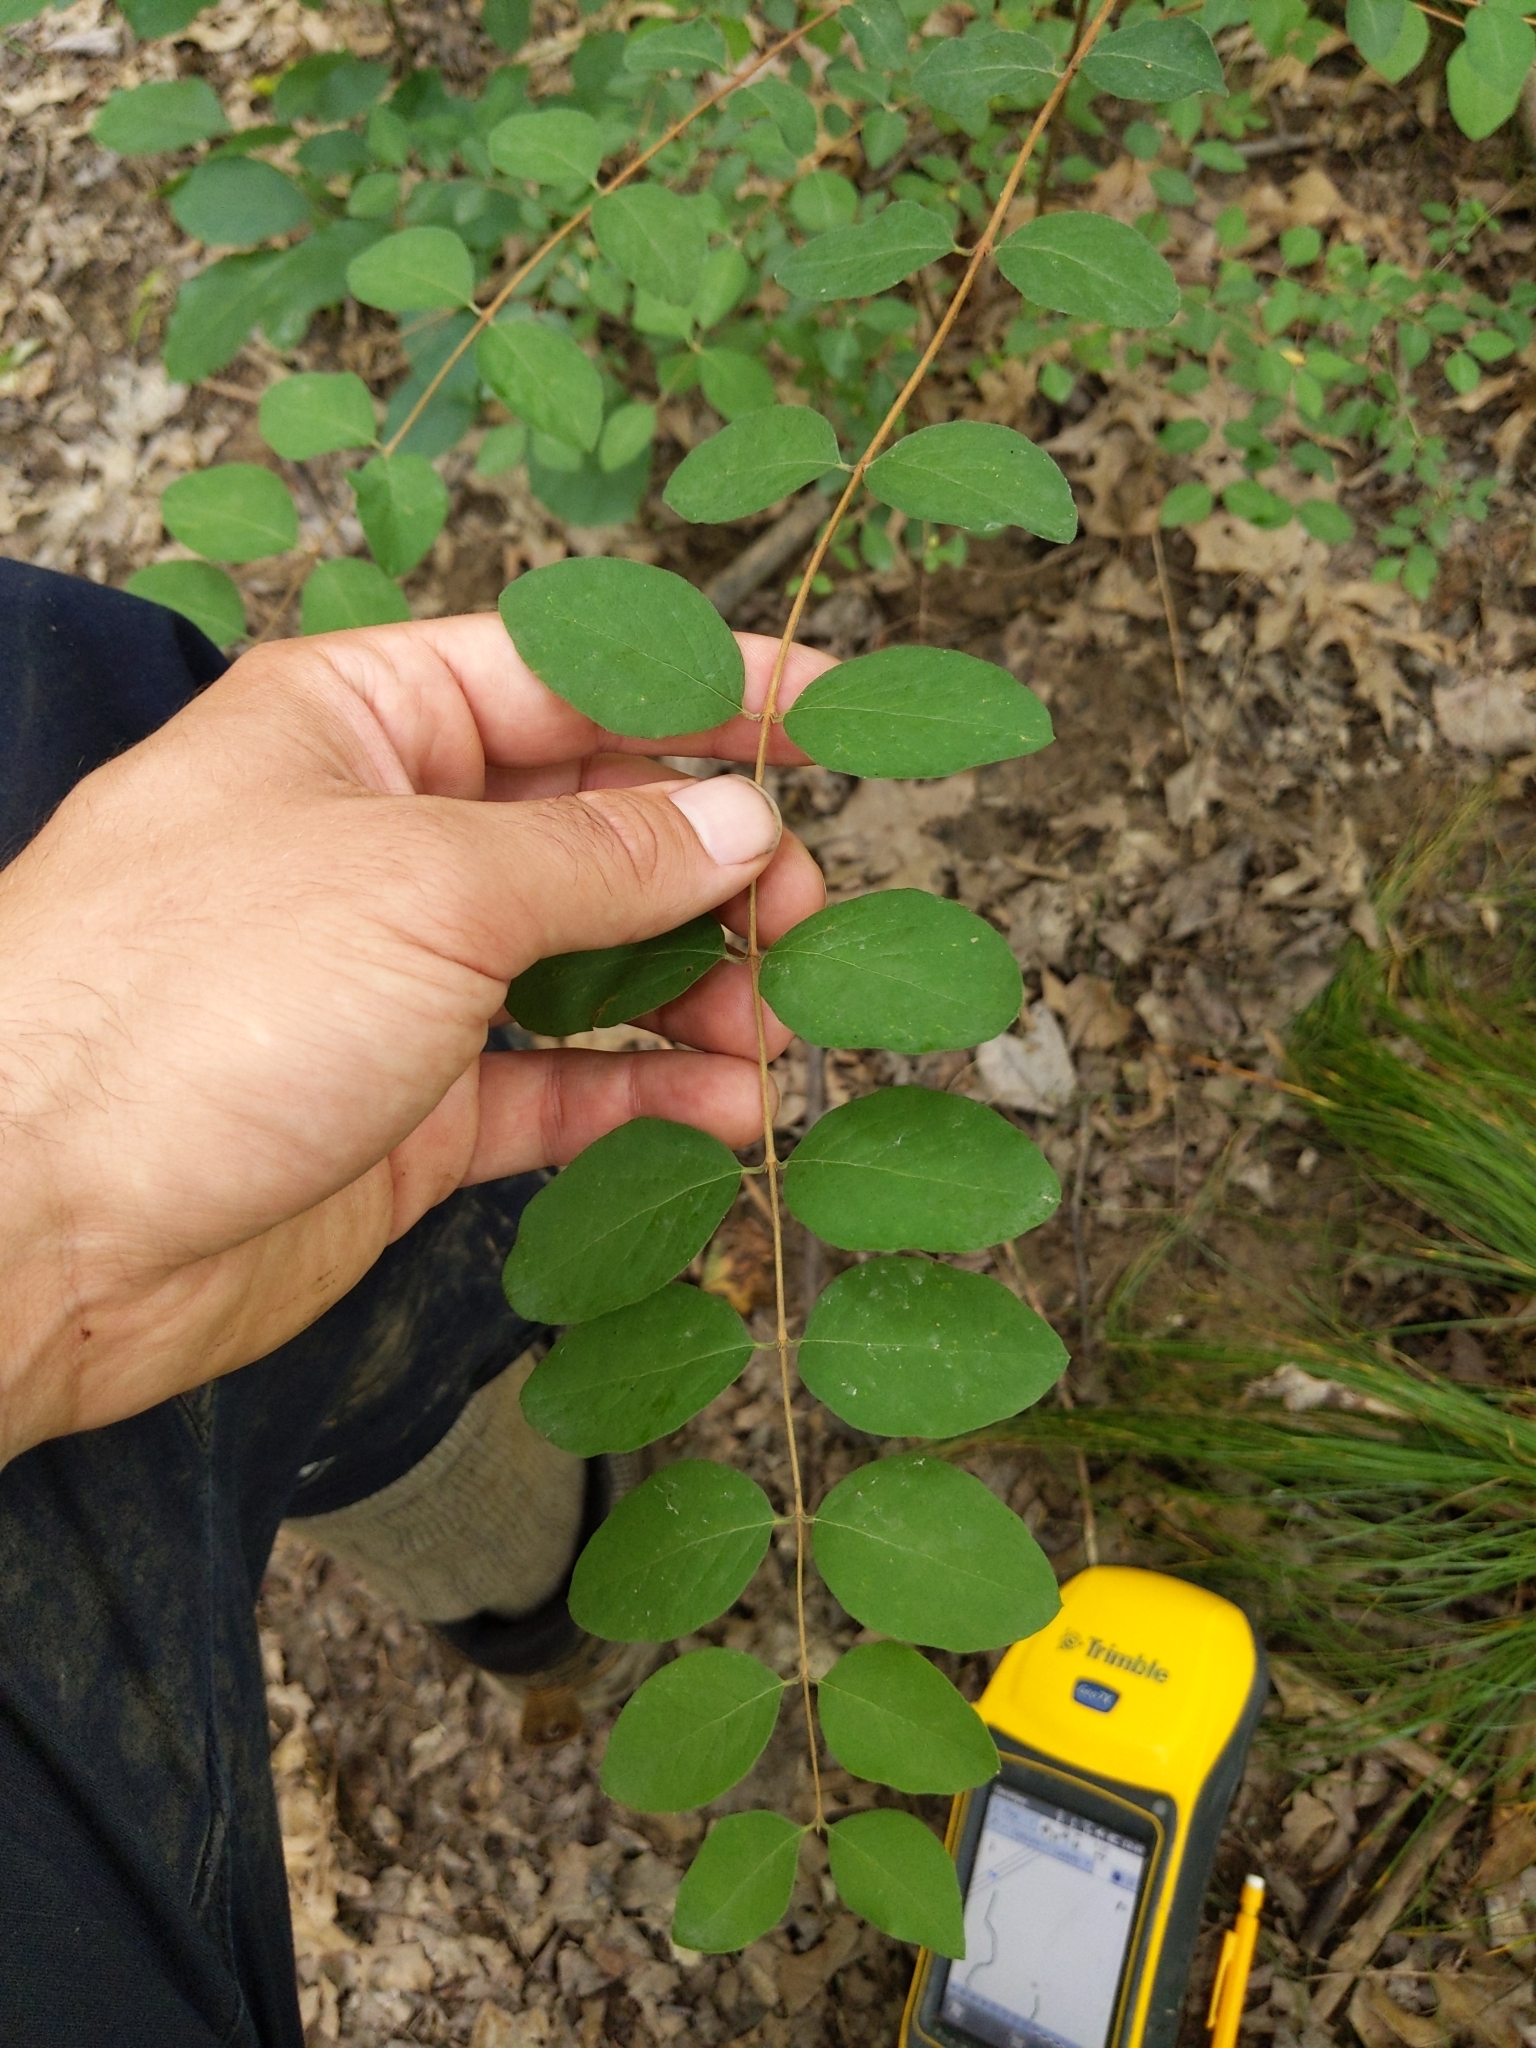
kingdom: Plantae
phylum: Tracheophyta
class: Magnoliopsida
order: Dipsacales
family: Caprifoliaceae
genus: Symphoricarpos
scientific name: Symphoricarpos orbiculatus
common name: Coralberry
